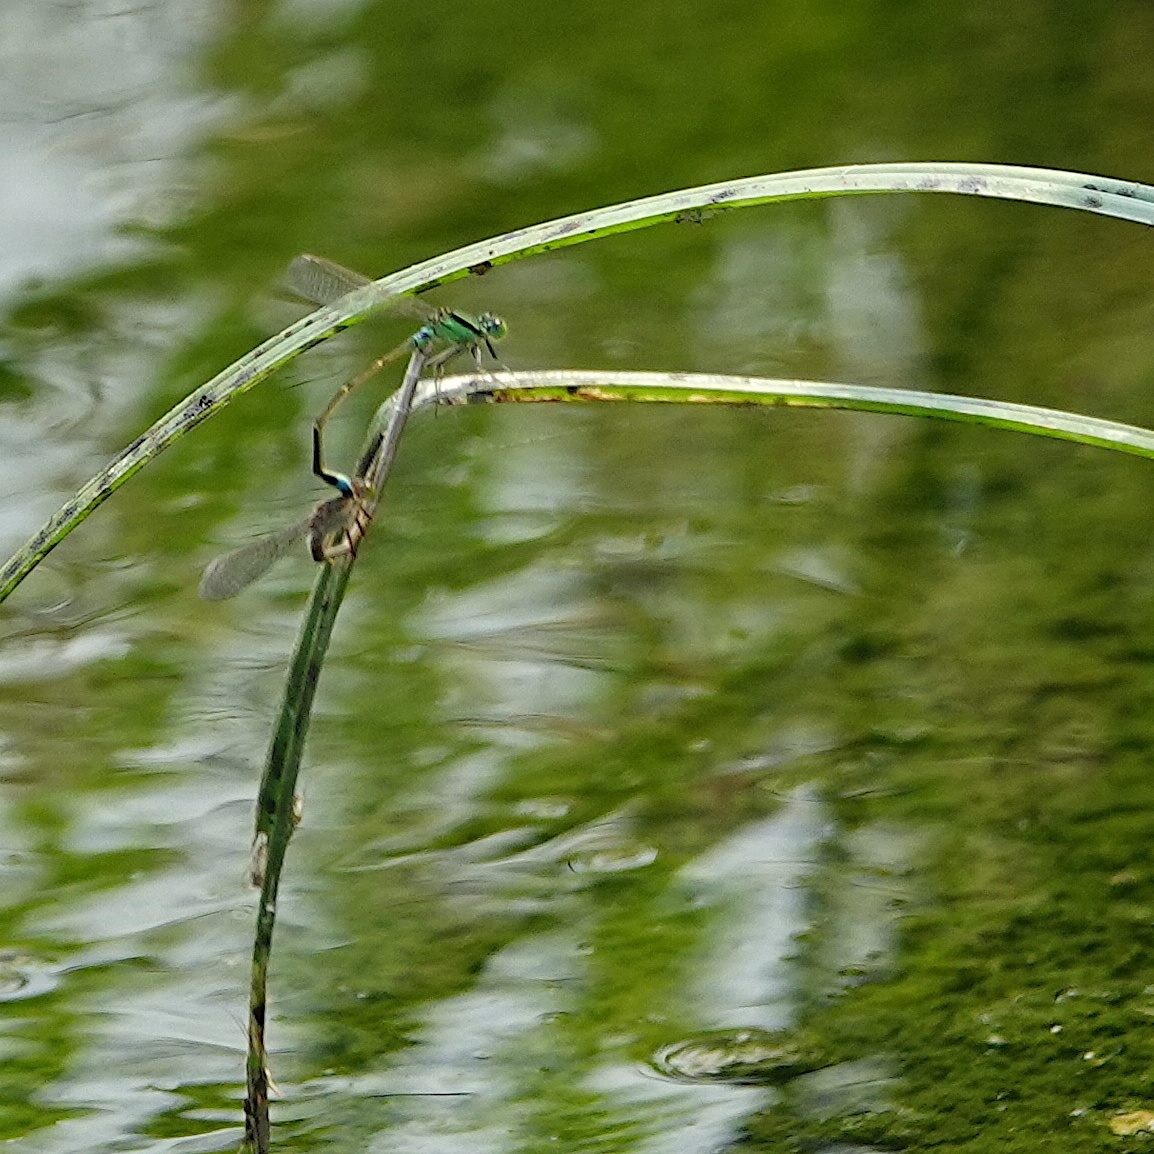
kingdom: Animalia
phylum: Arthropoda
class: Insecta
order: Odonata
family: Coenagrionidae
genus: Ischnura
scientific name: Ischnura senegalensis
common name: Tropical bluetail
